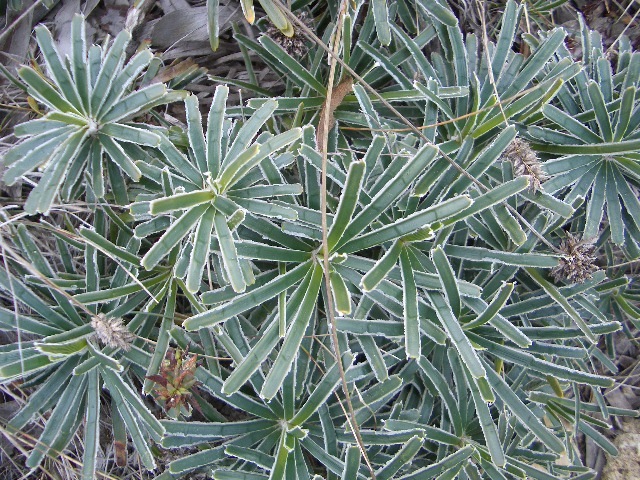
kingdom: Plantae
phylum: Tracheophyta
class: Liliopsida
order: Poales
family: Cyperaceae
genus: Ficinia
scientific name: Ficinia truncata
